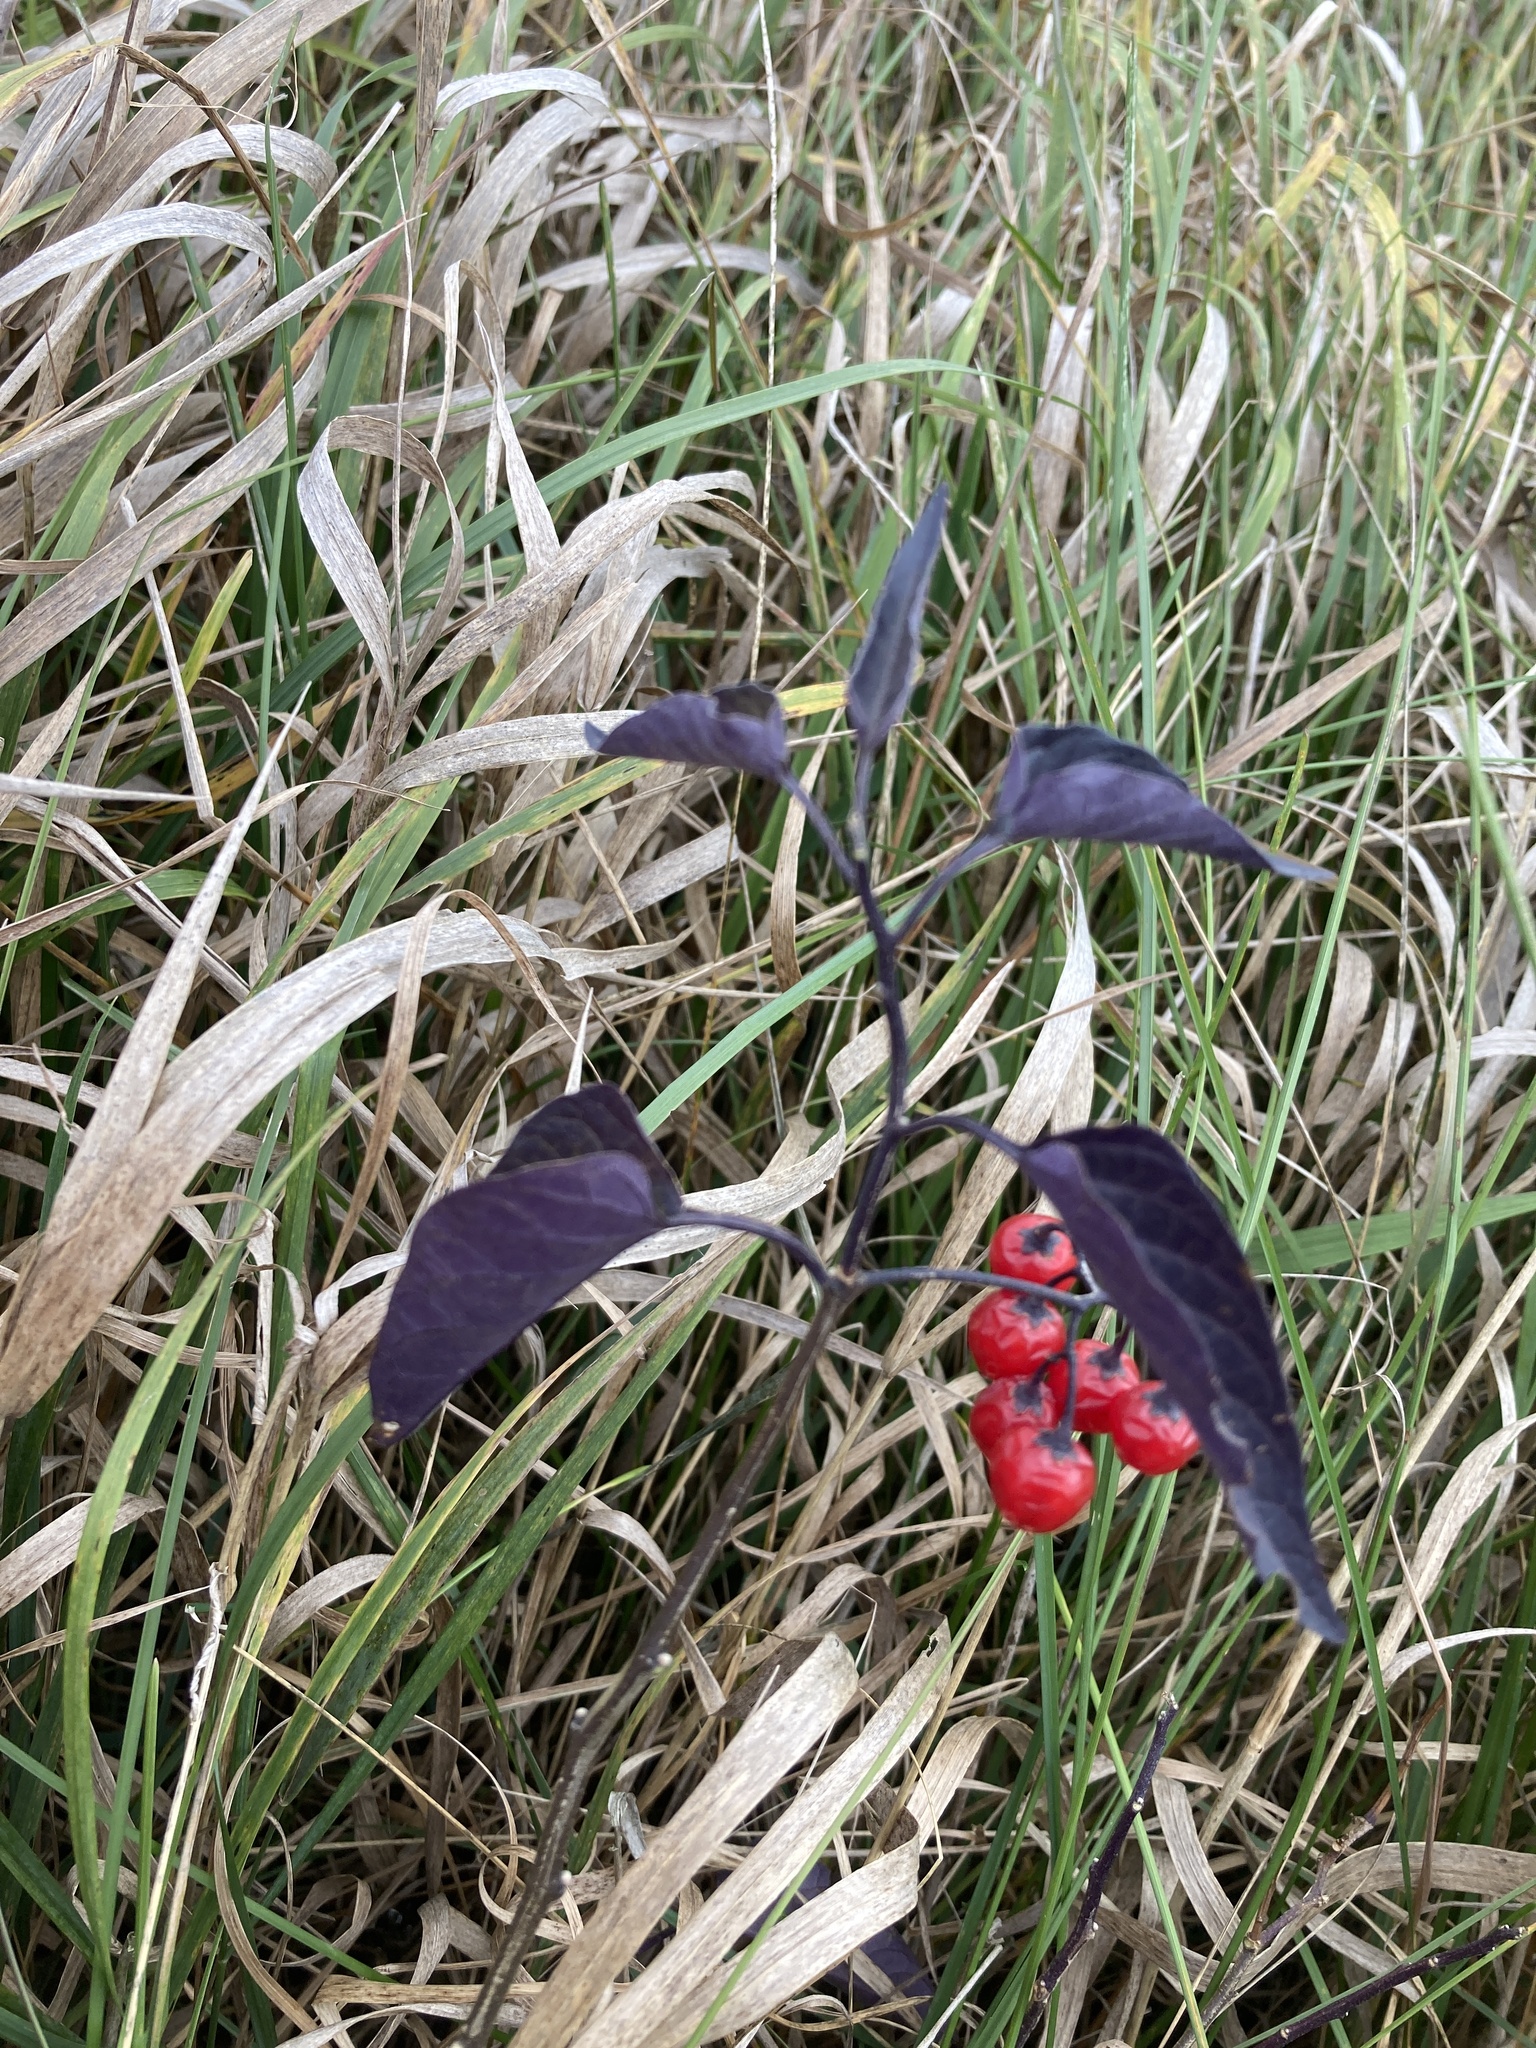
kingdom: Plantae
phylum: Tracheophyta
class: Magnoliopsida
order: Solanales
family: Solanaceae
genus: Solanum
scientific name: Solanum dulcamara
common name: Climbing nightshade
